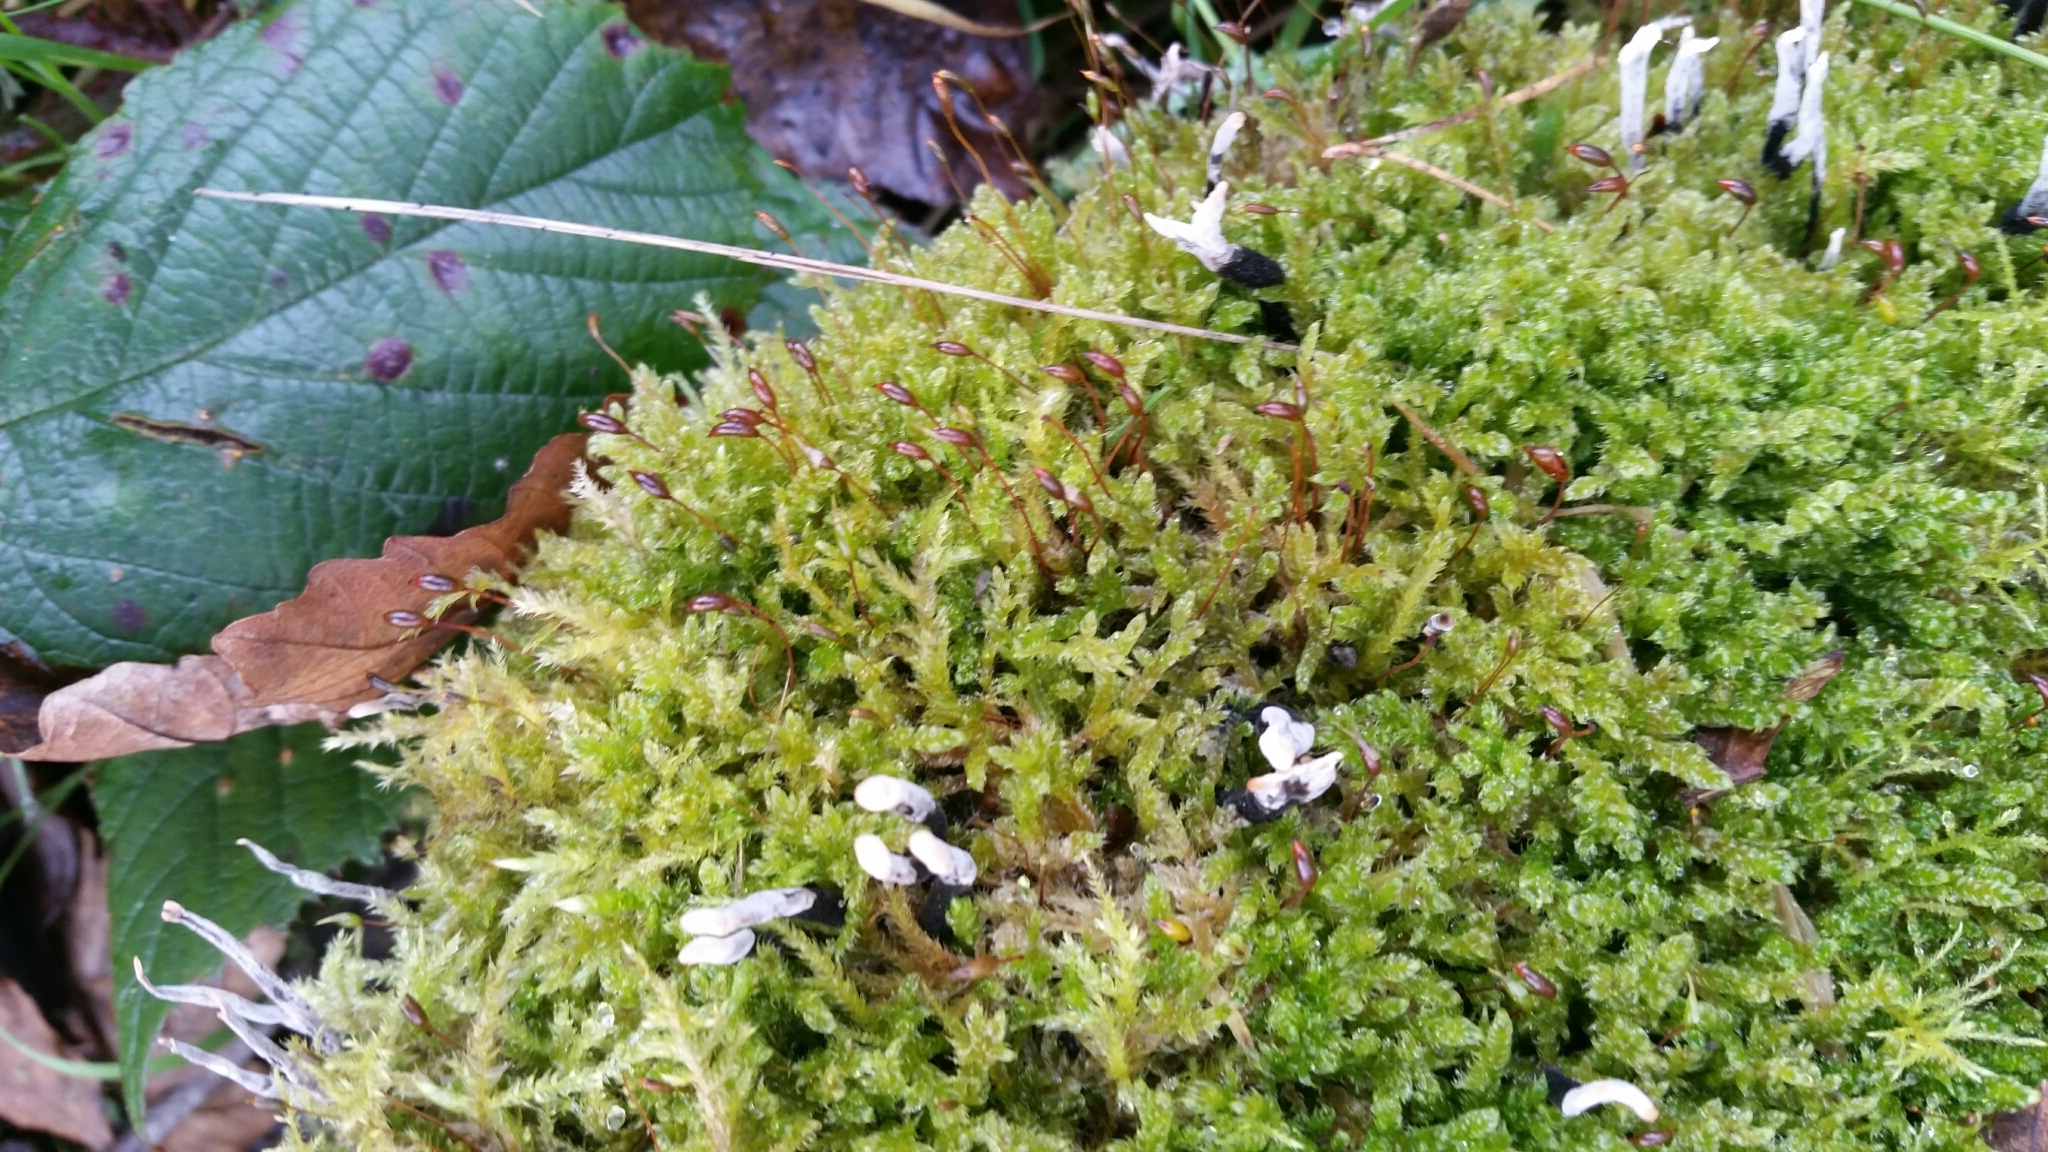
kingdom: Fungi
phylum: Ascomycota
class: Sordariomycetes
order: Xylariales
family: Xylariaceae
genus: Xylaria
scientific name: Xylaria hypoxylon
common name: Candle-snuff fungus
